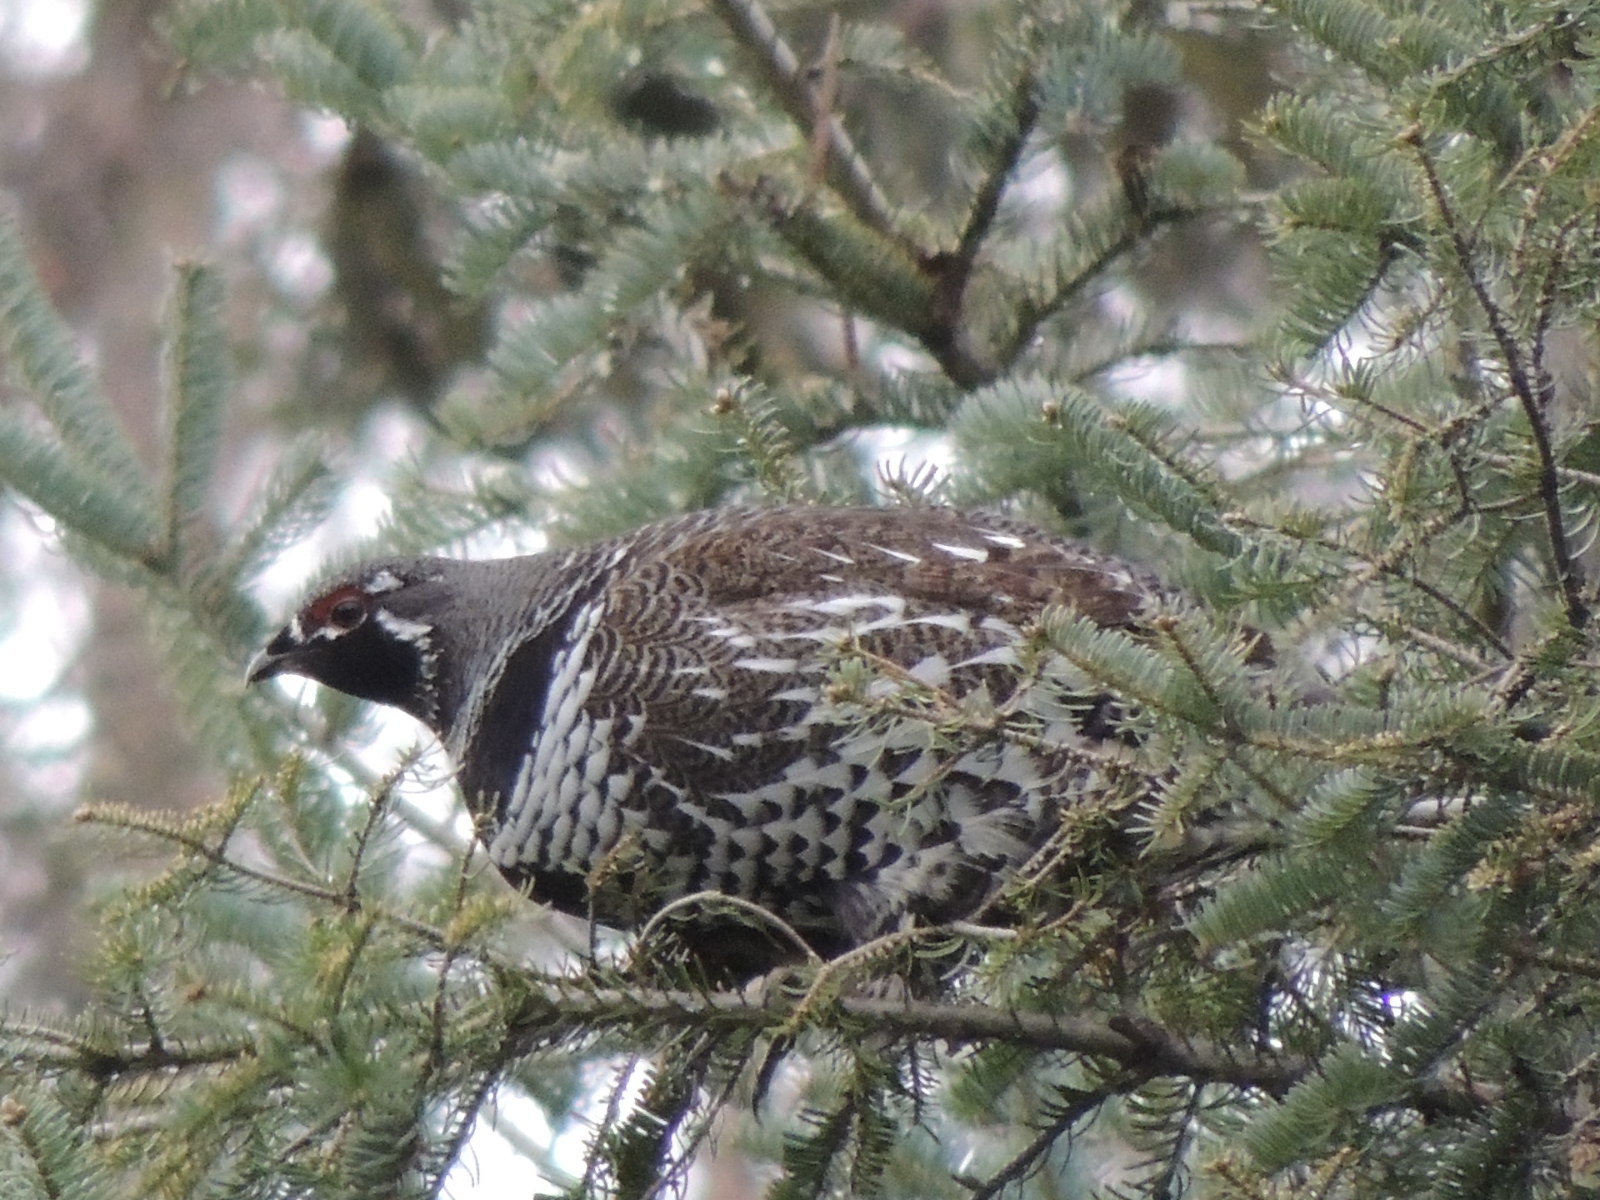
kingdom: Animalia
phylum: Chordata
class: Aves
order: Galliformes
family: Phasianidae
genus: Canachites
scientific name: Canachites canadensis
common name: Spruce grouse
